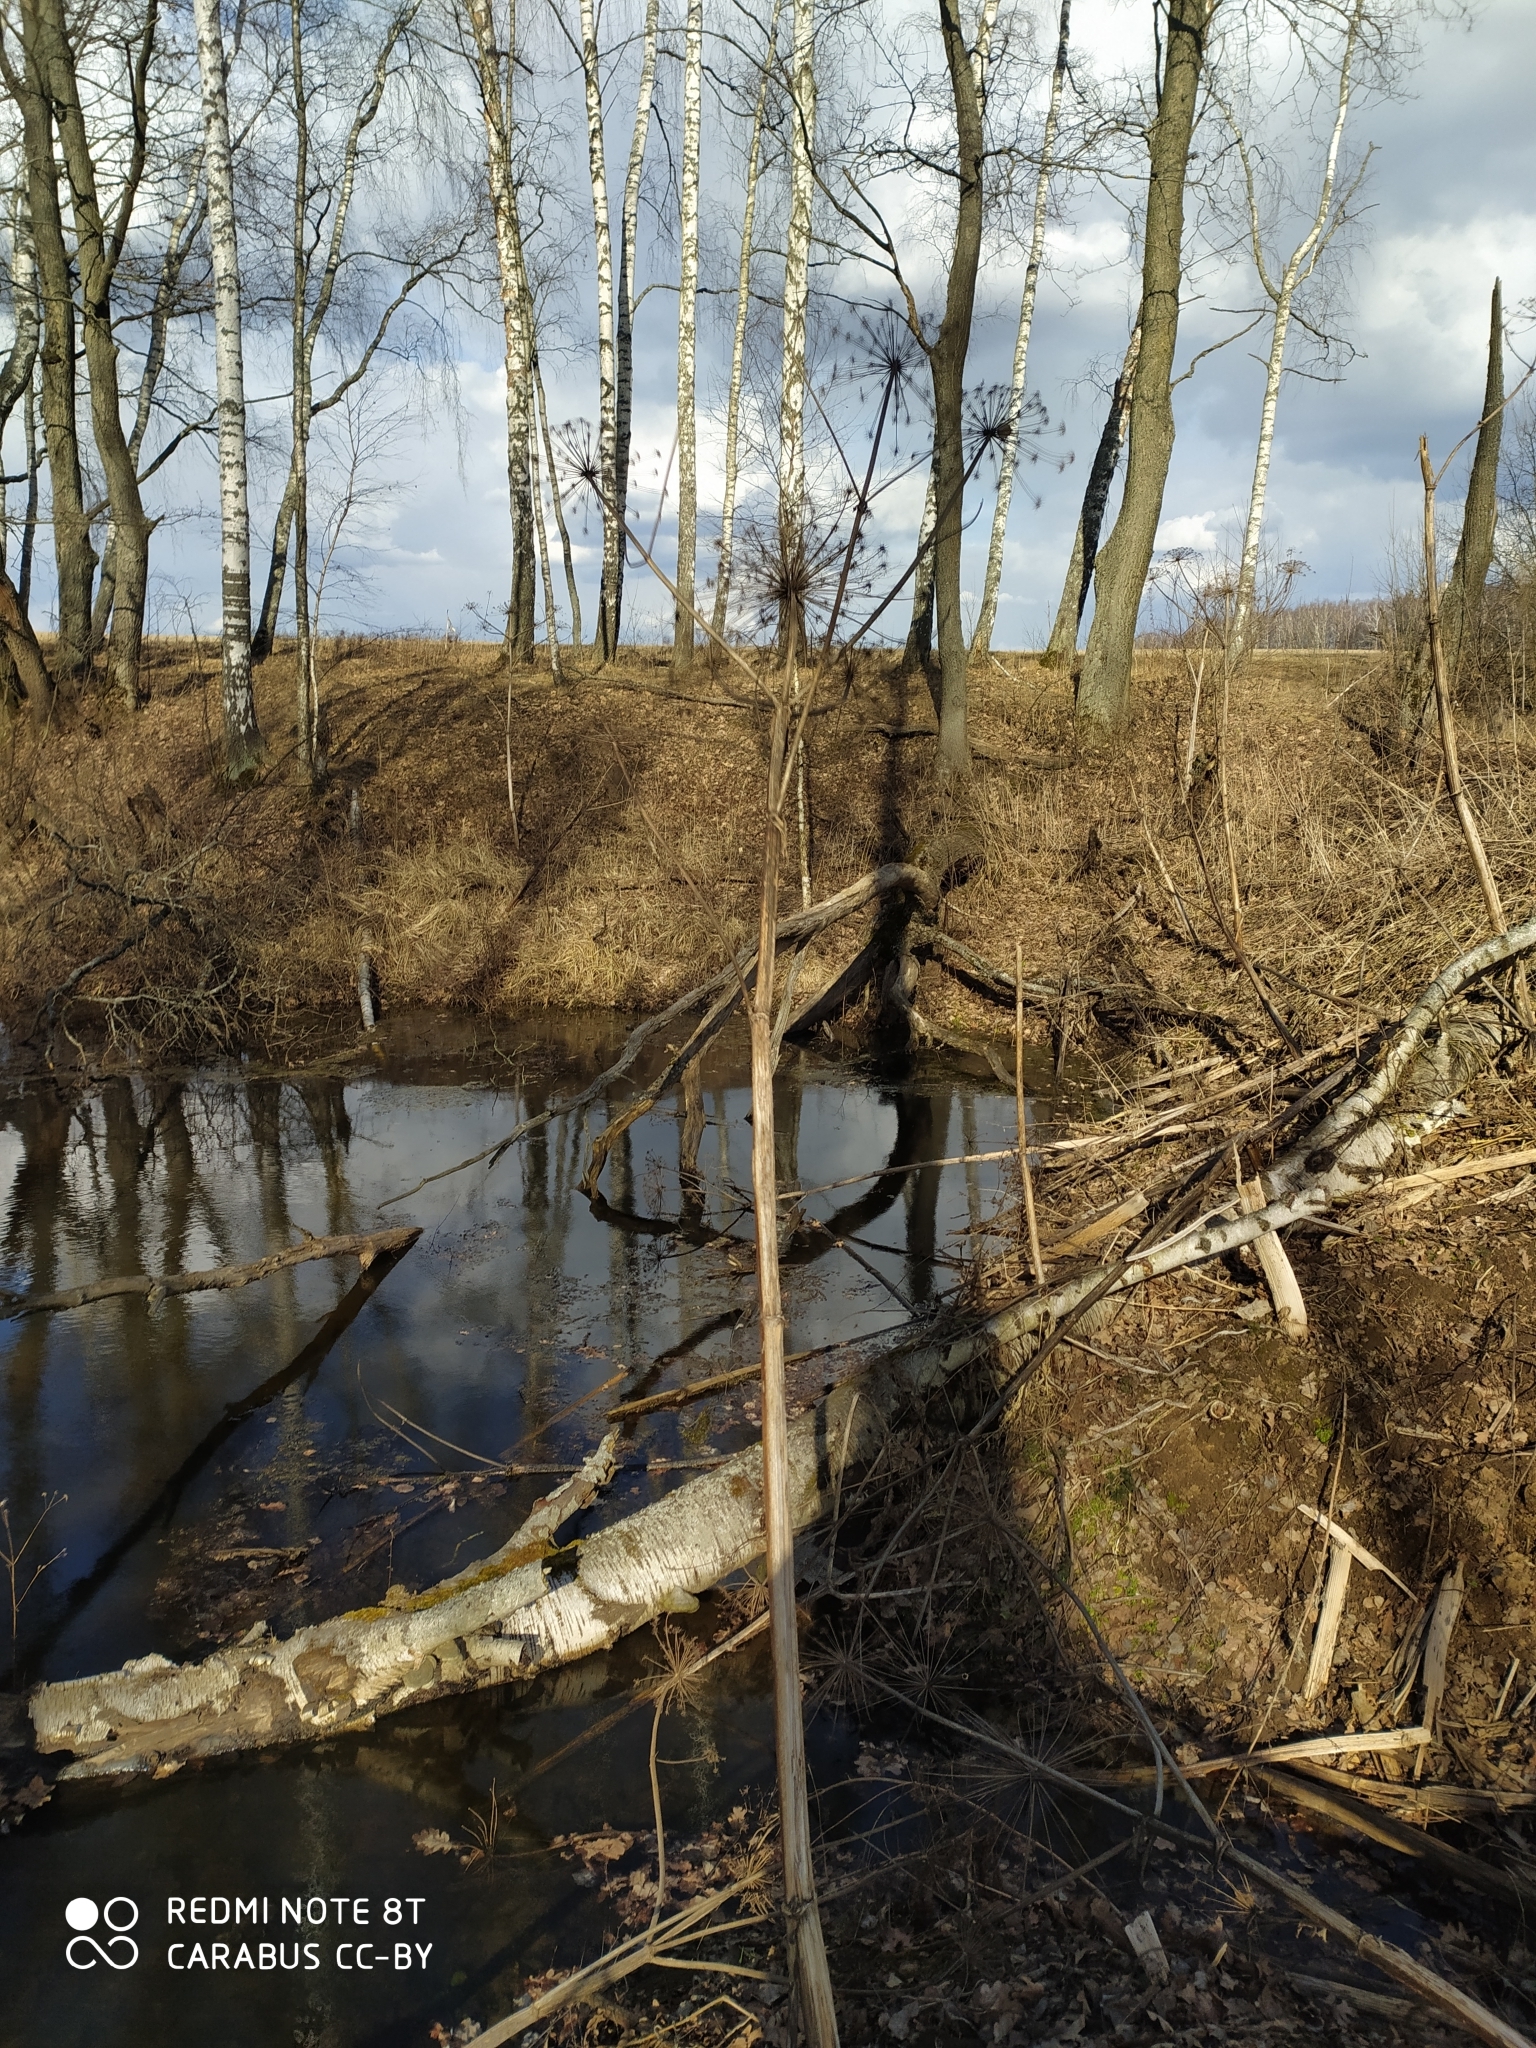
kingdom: Plantae
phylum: Tracheophyta
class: Magnoliopsida
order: Apiales
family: Apiaceae
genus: Heracleum
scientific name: Heracleum sosnowskyi
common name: Sosnowsky's hogweed
